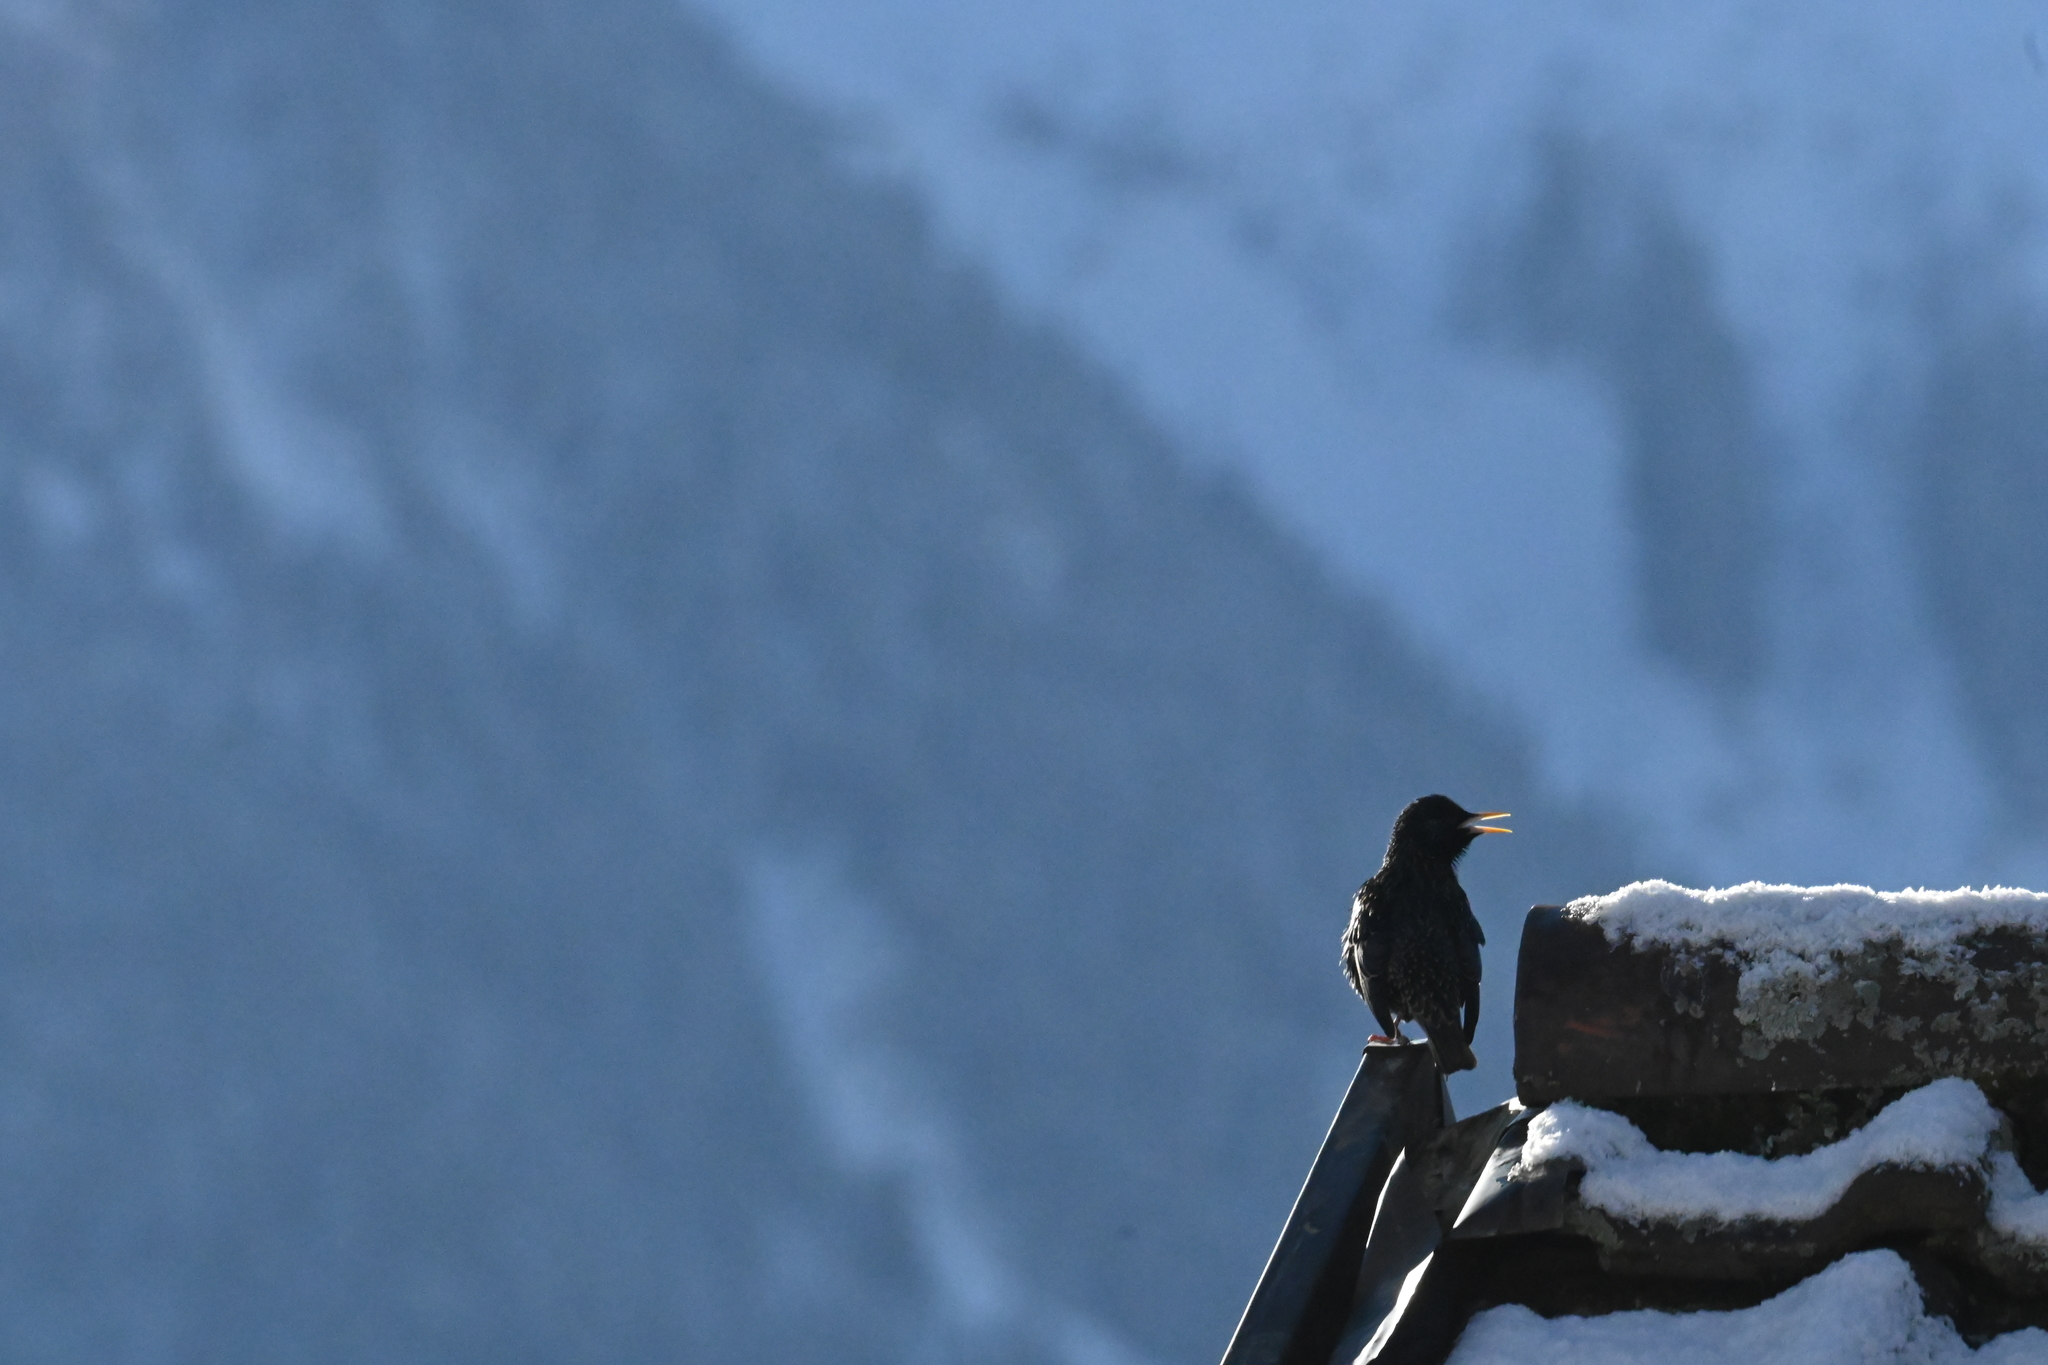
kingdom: Animalia
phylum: Chordata
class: Aves
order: Passeriformes
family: Sturnidae
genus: Sturnus
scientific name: Sturnus vulgaris
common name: Common starling
